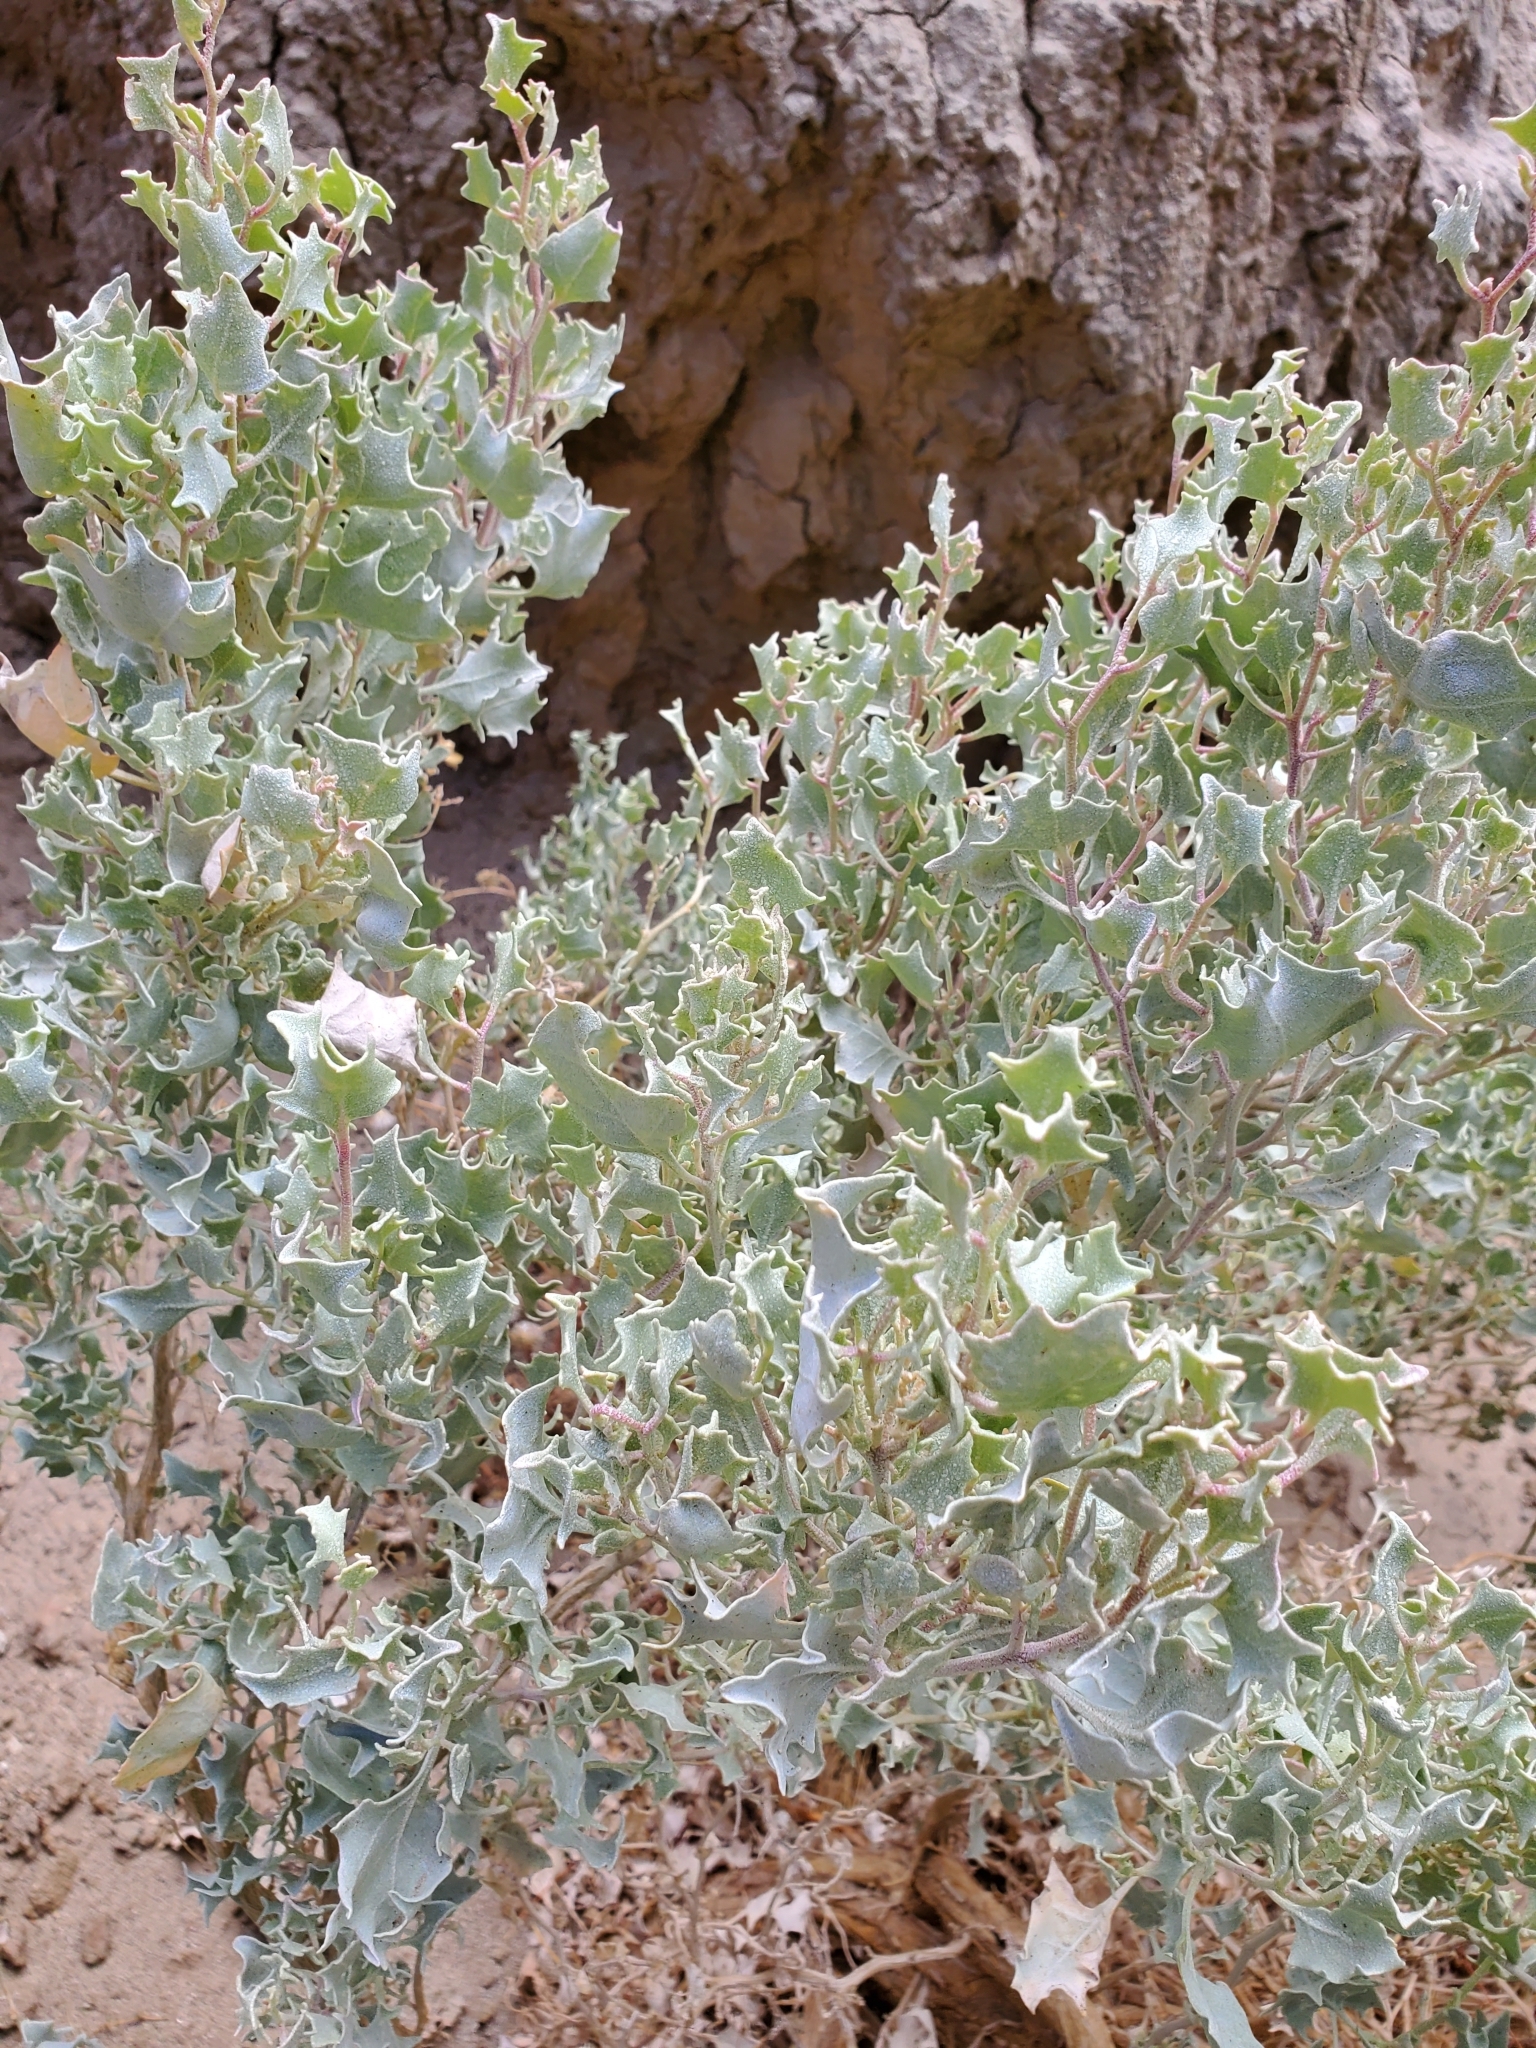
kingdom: Plantae
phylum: Tracheophyta
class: Magnoliopsida
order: Caryophyllales
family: Amaranthaceae
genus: Atriplex
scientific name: Atriplex hymenelytra
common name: Desert-holly
